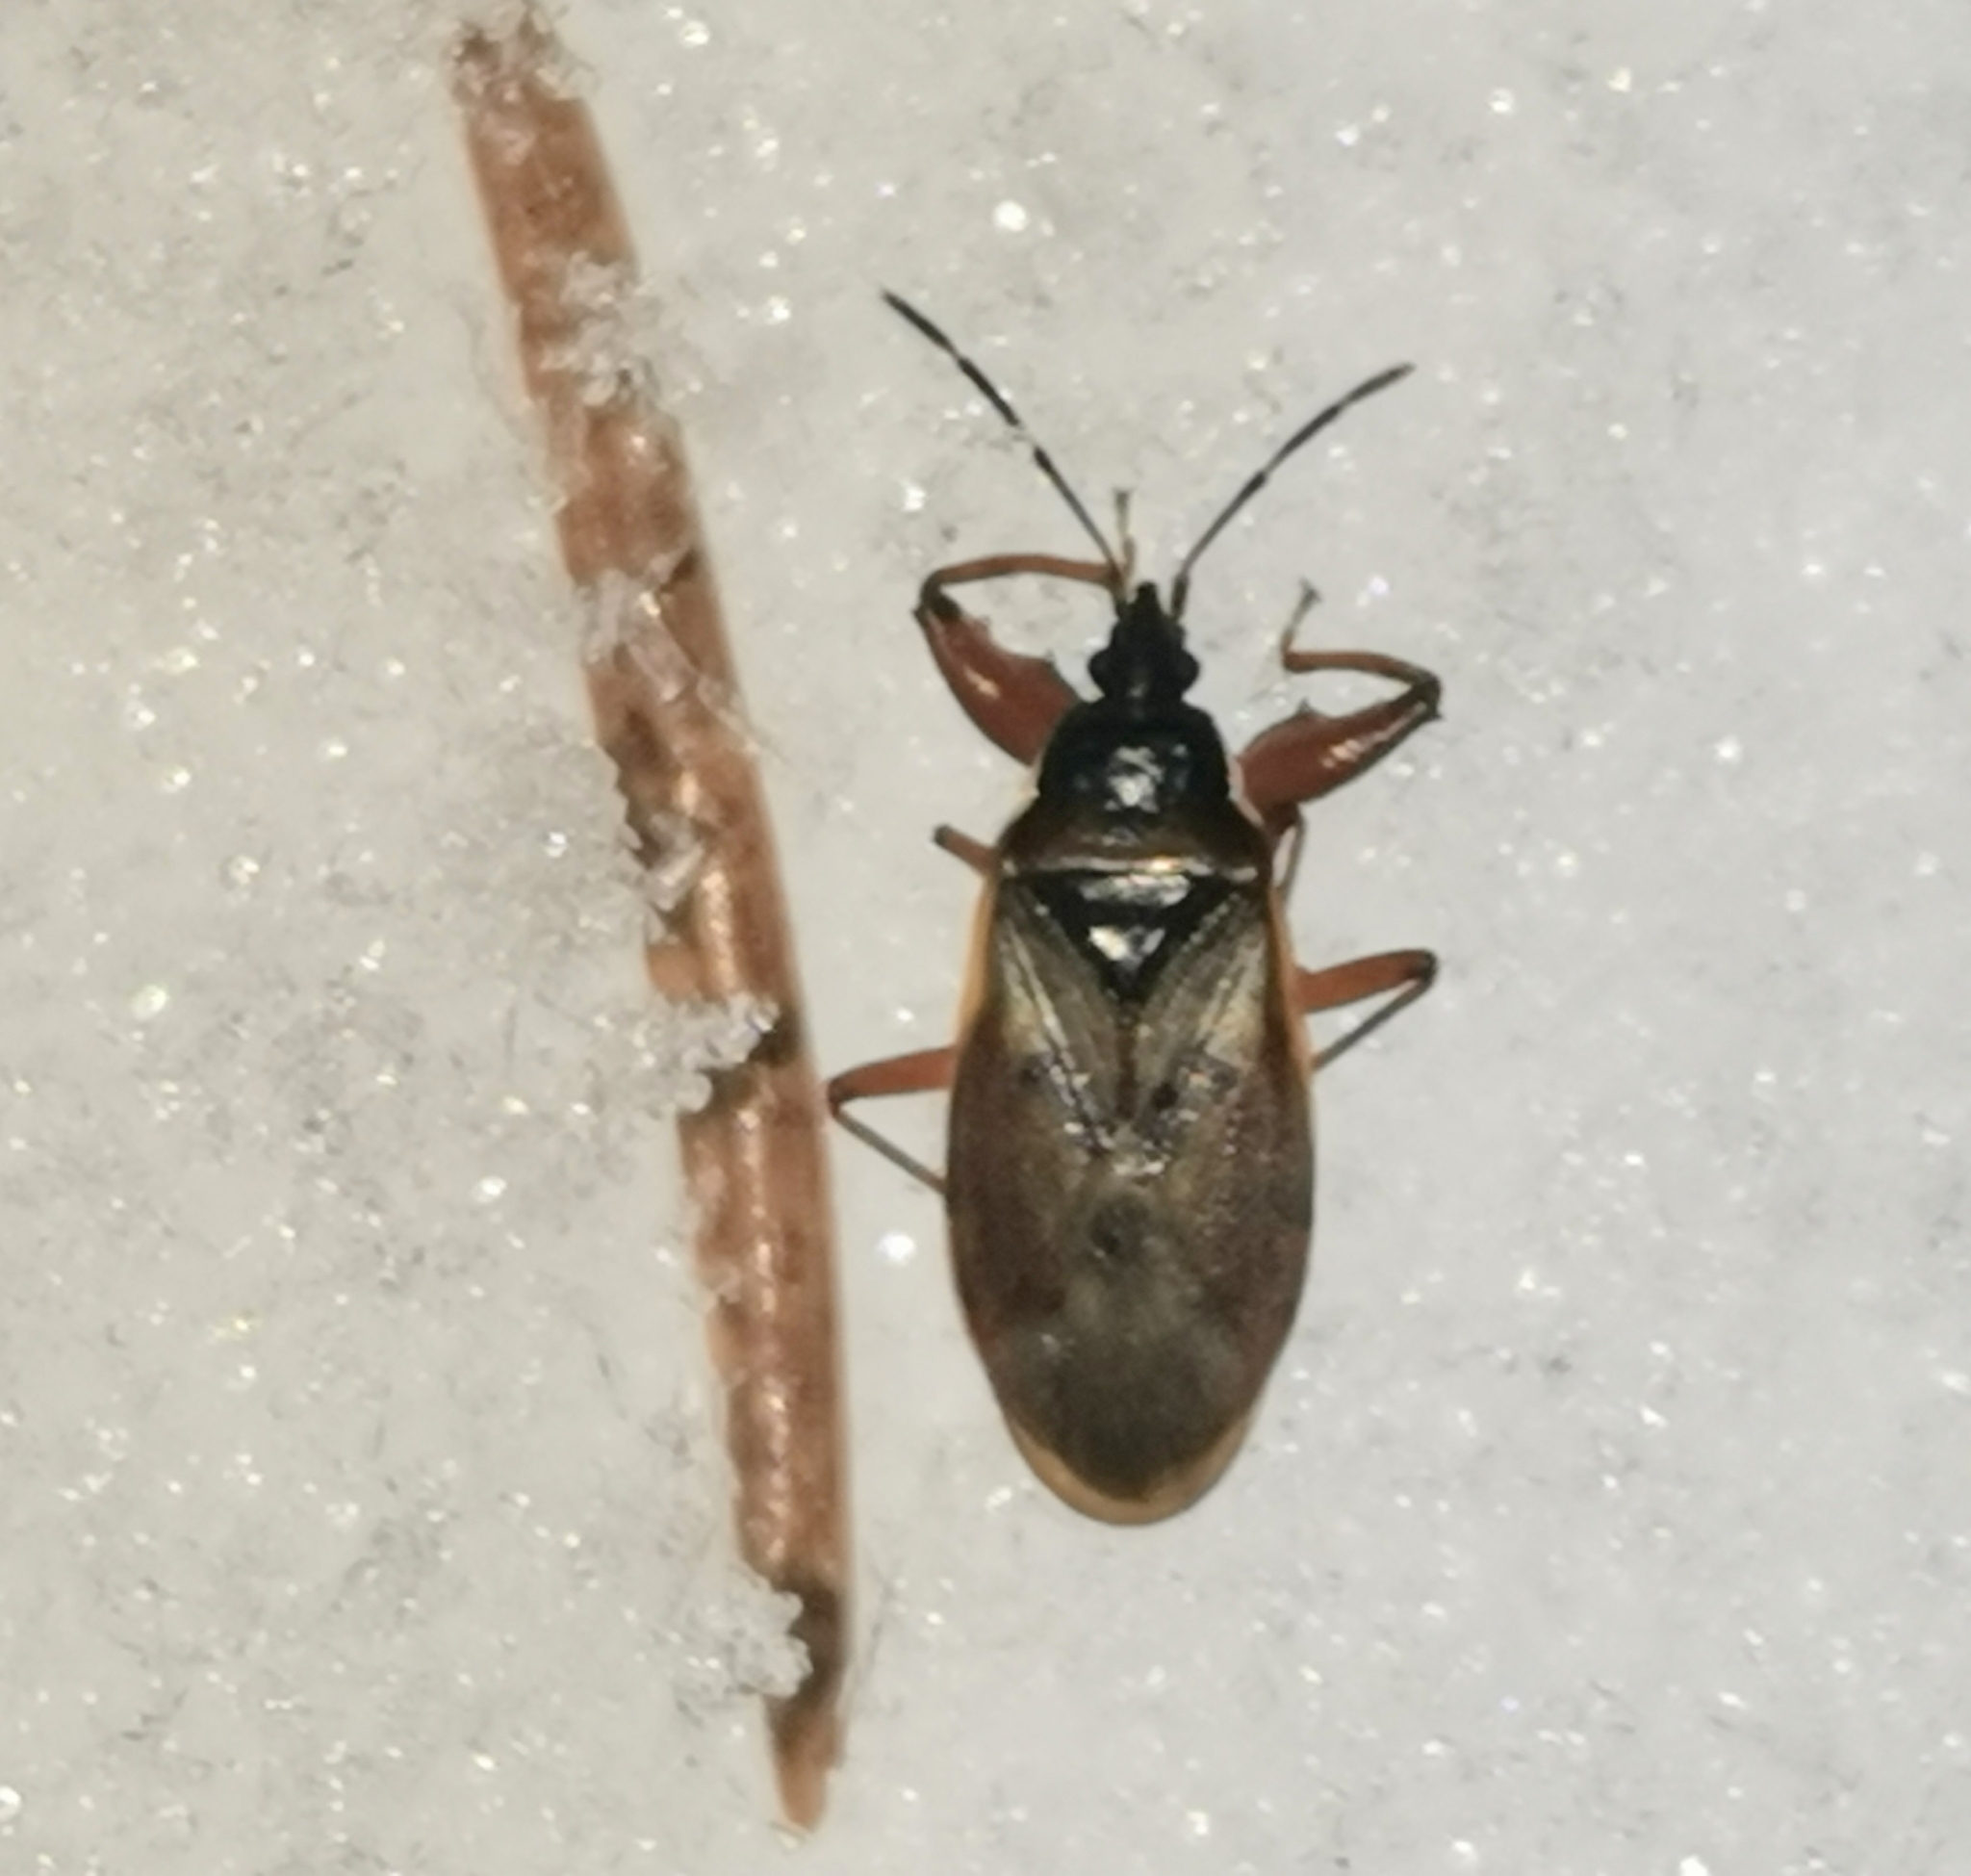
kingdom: Animalia
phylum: Arthropoda
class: Insecta
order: Hemiptera
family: Rhyparochromidae
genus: Gastrodes
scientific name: Gastrodes abietum
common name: Spruce cone bug
